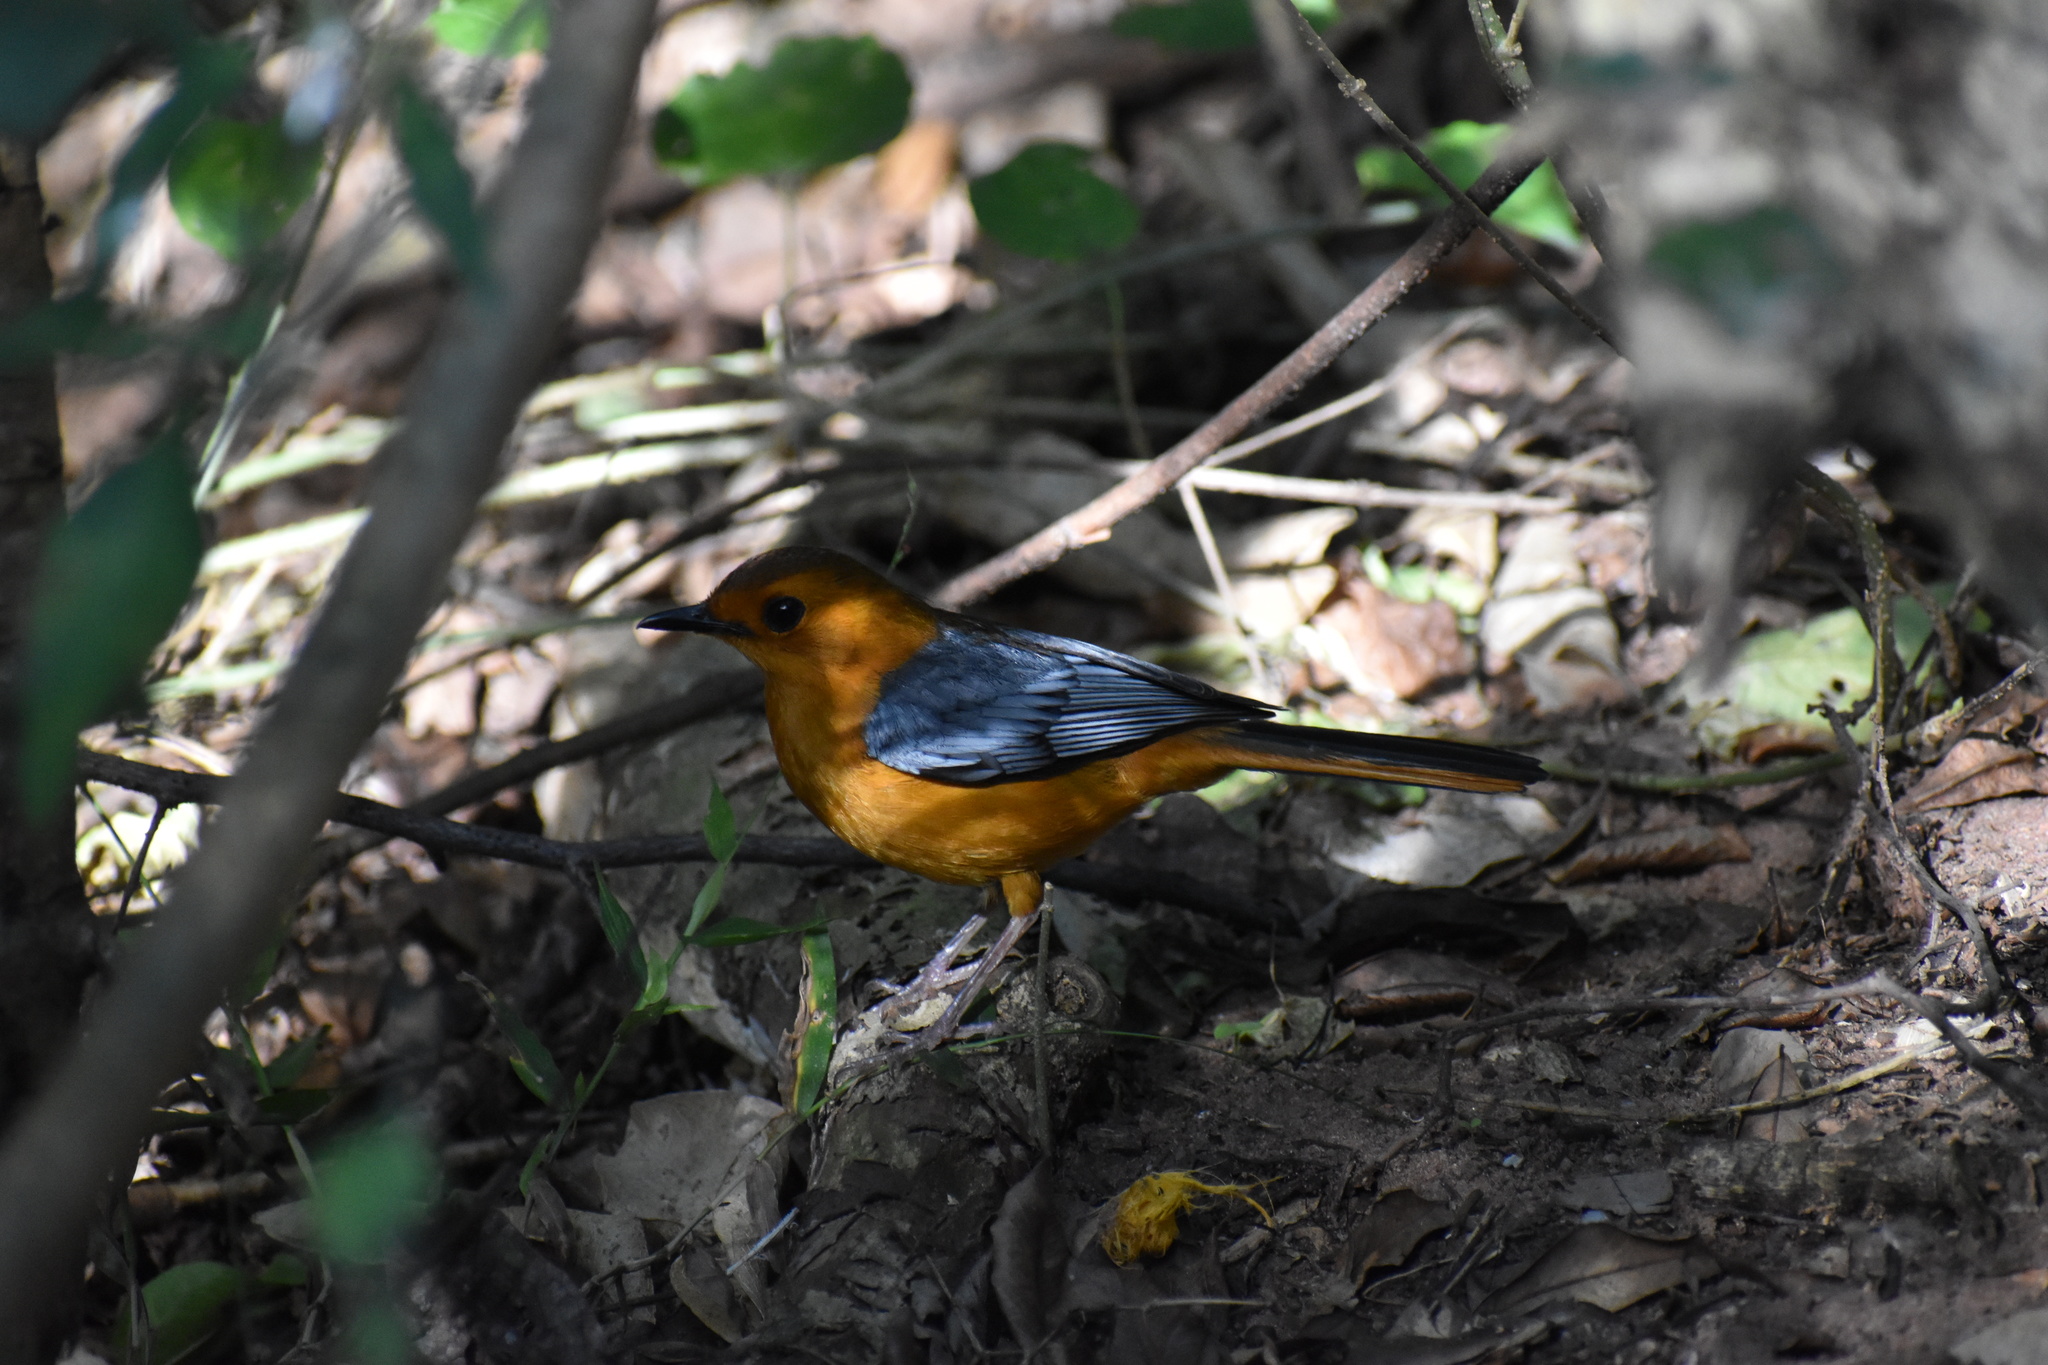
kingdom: Animalia
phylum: Chordata
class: Aves
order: Passeriformes
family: Muscicapidae
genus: Cossypha
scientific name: Cossypha natalensis
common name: Red-capped robin-chat
